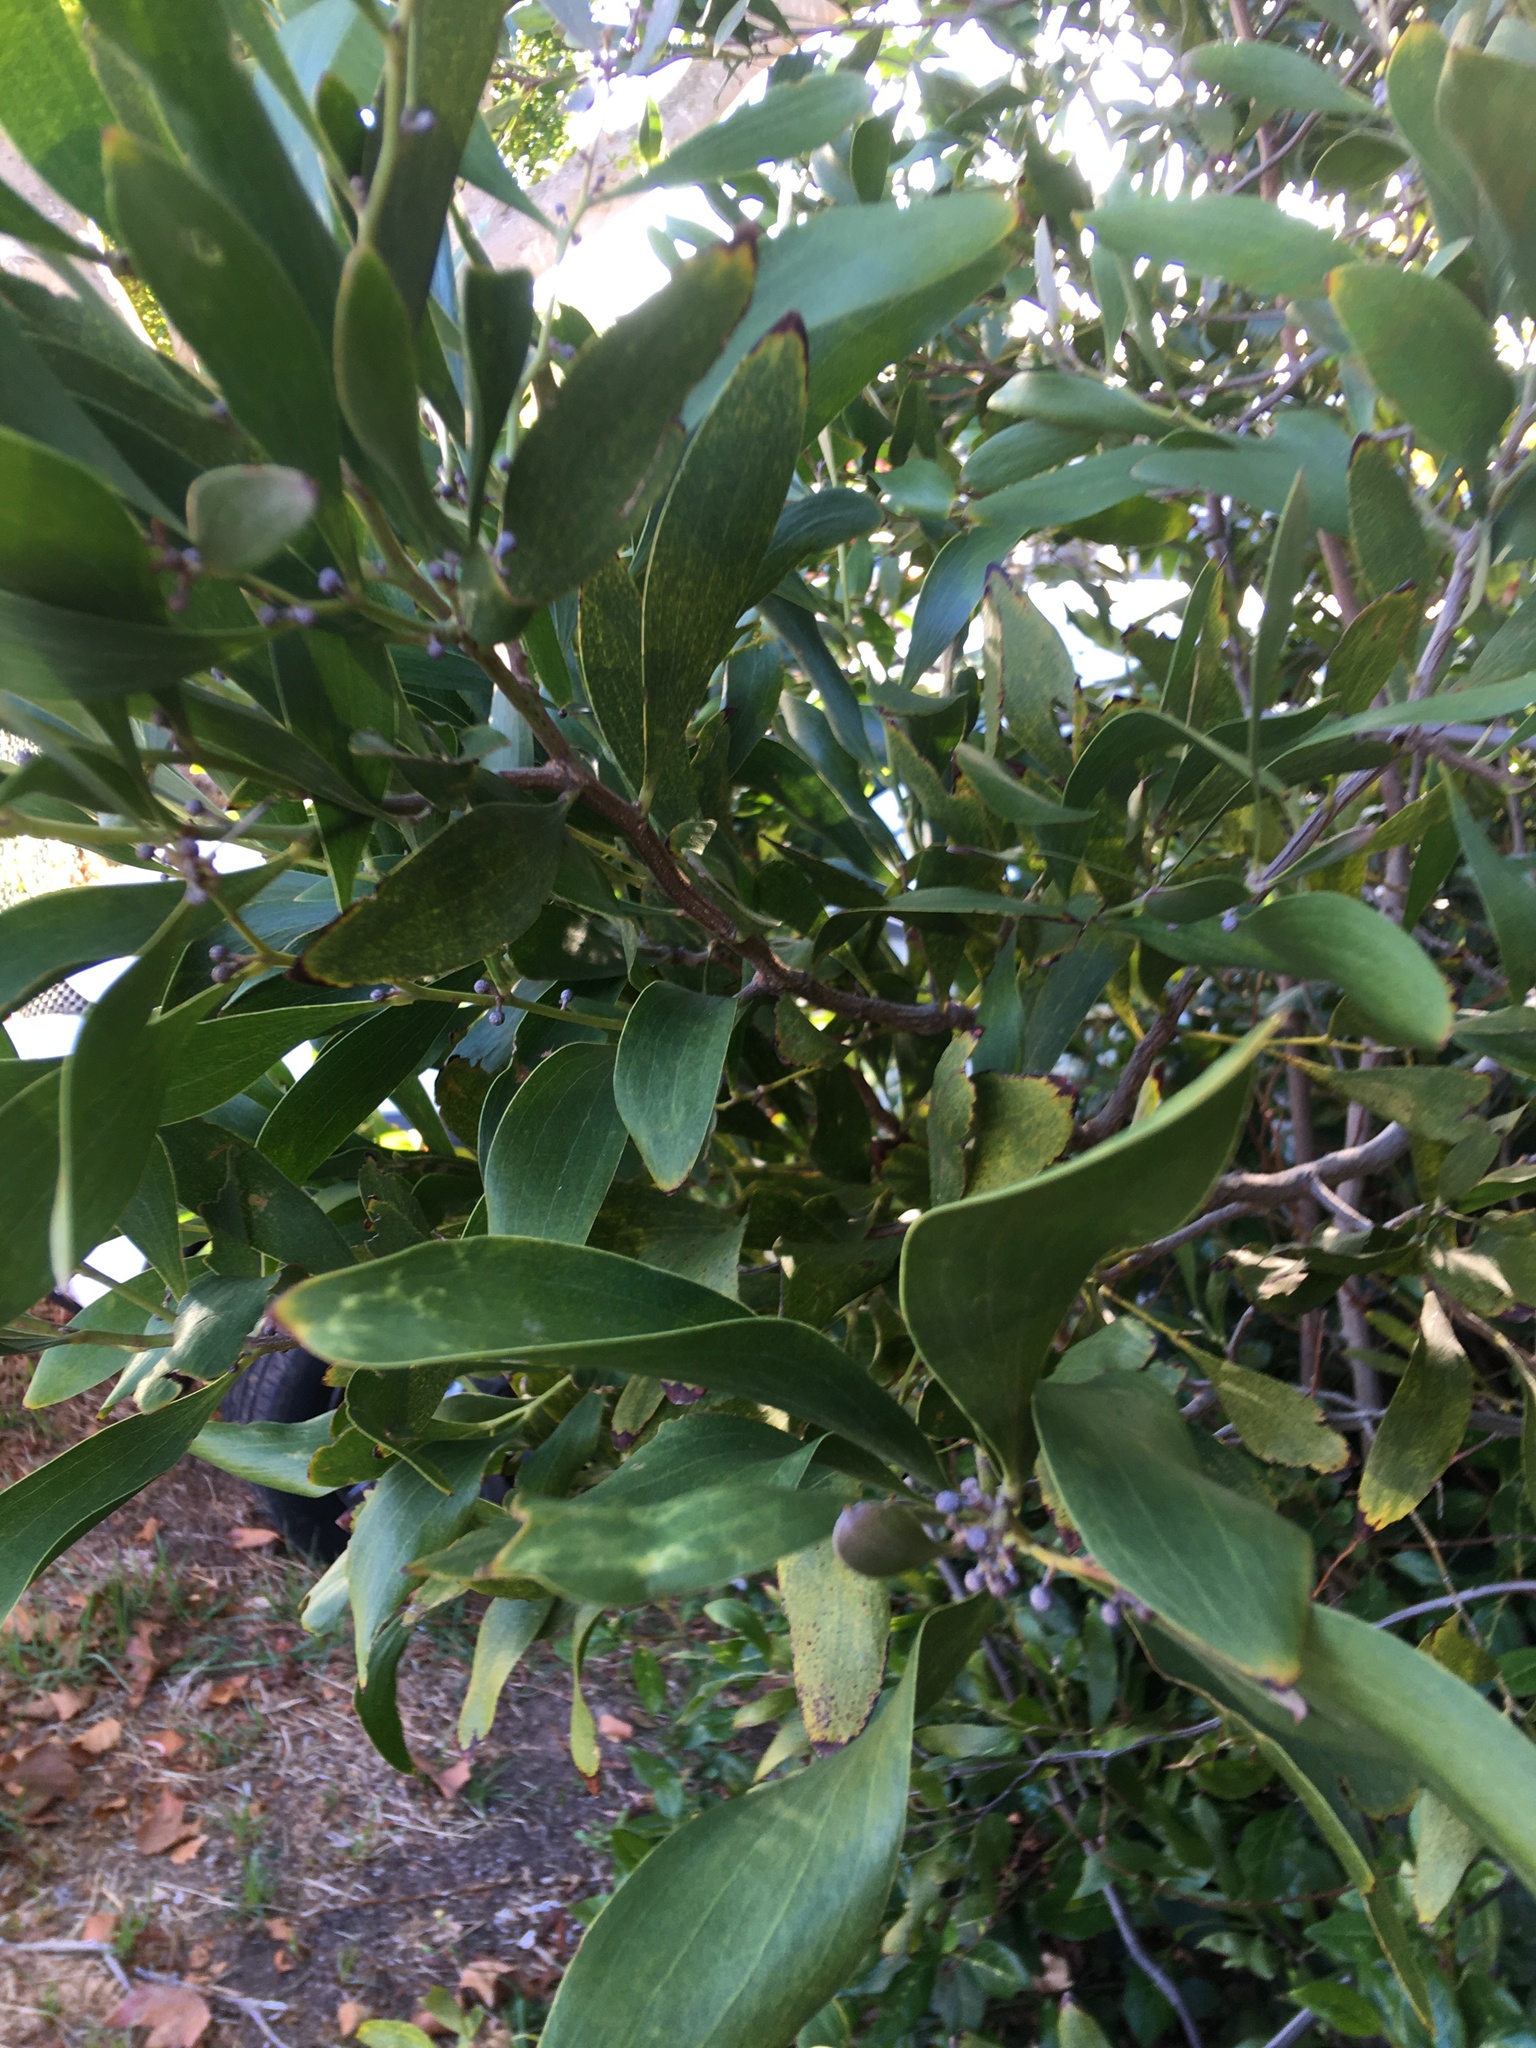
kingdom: Plantae
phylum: Tracheophyta
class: Magnoliopsida
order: Fabales
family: Fabaceae
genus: Acacia
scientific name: Acacia melanoxylon
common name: Blackwood
